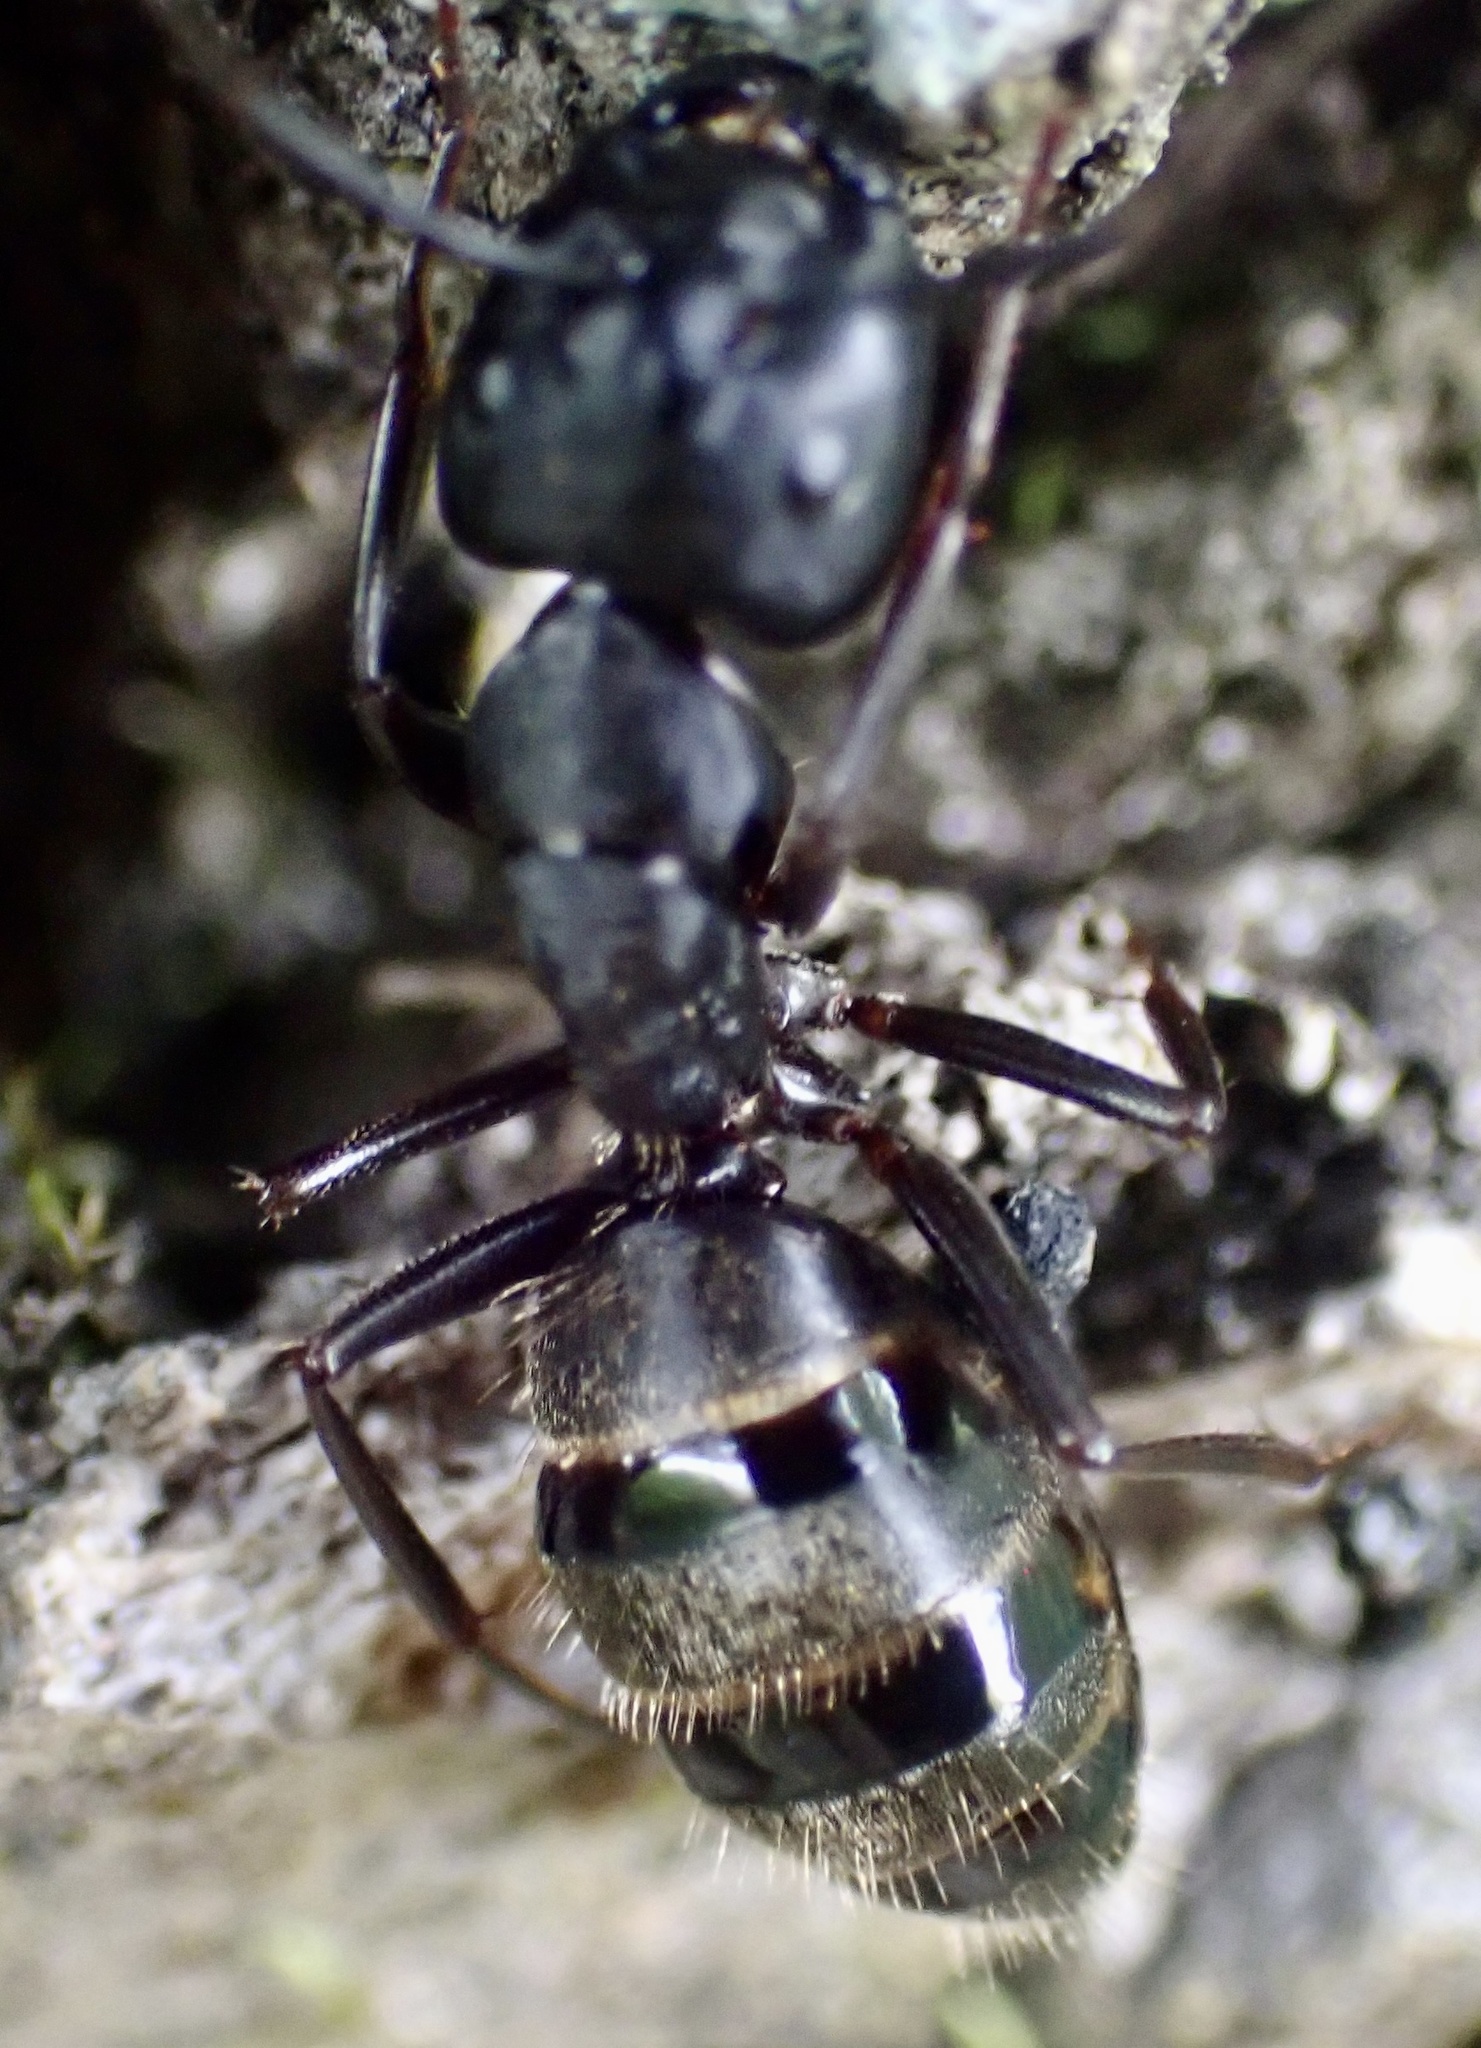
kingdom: Animalia
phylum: Arthropoda
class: Insecta
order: Hymenoptera
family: Formicidae
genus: Camponotus
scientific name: Camponotus pennsylvanicus
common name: Black carpenter ant
